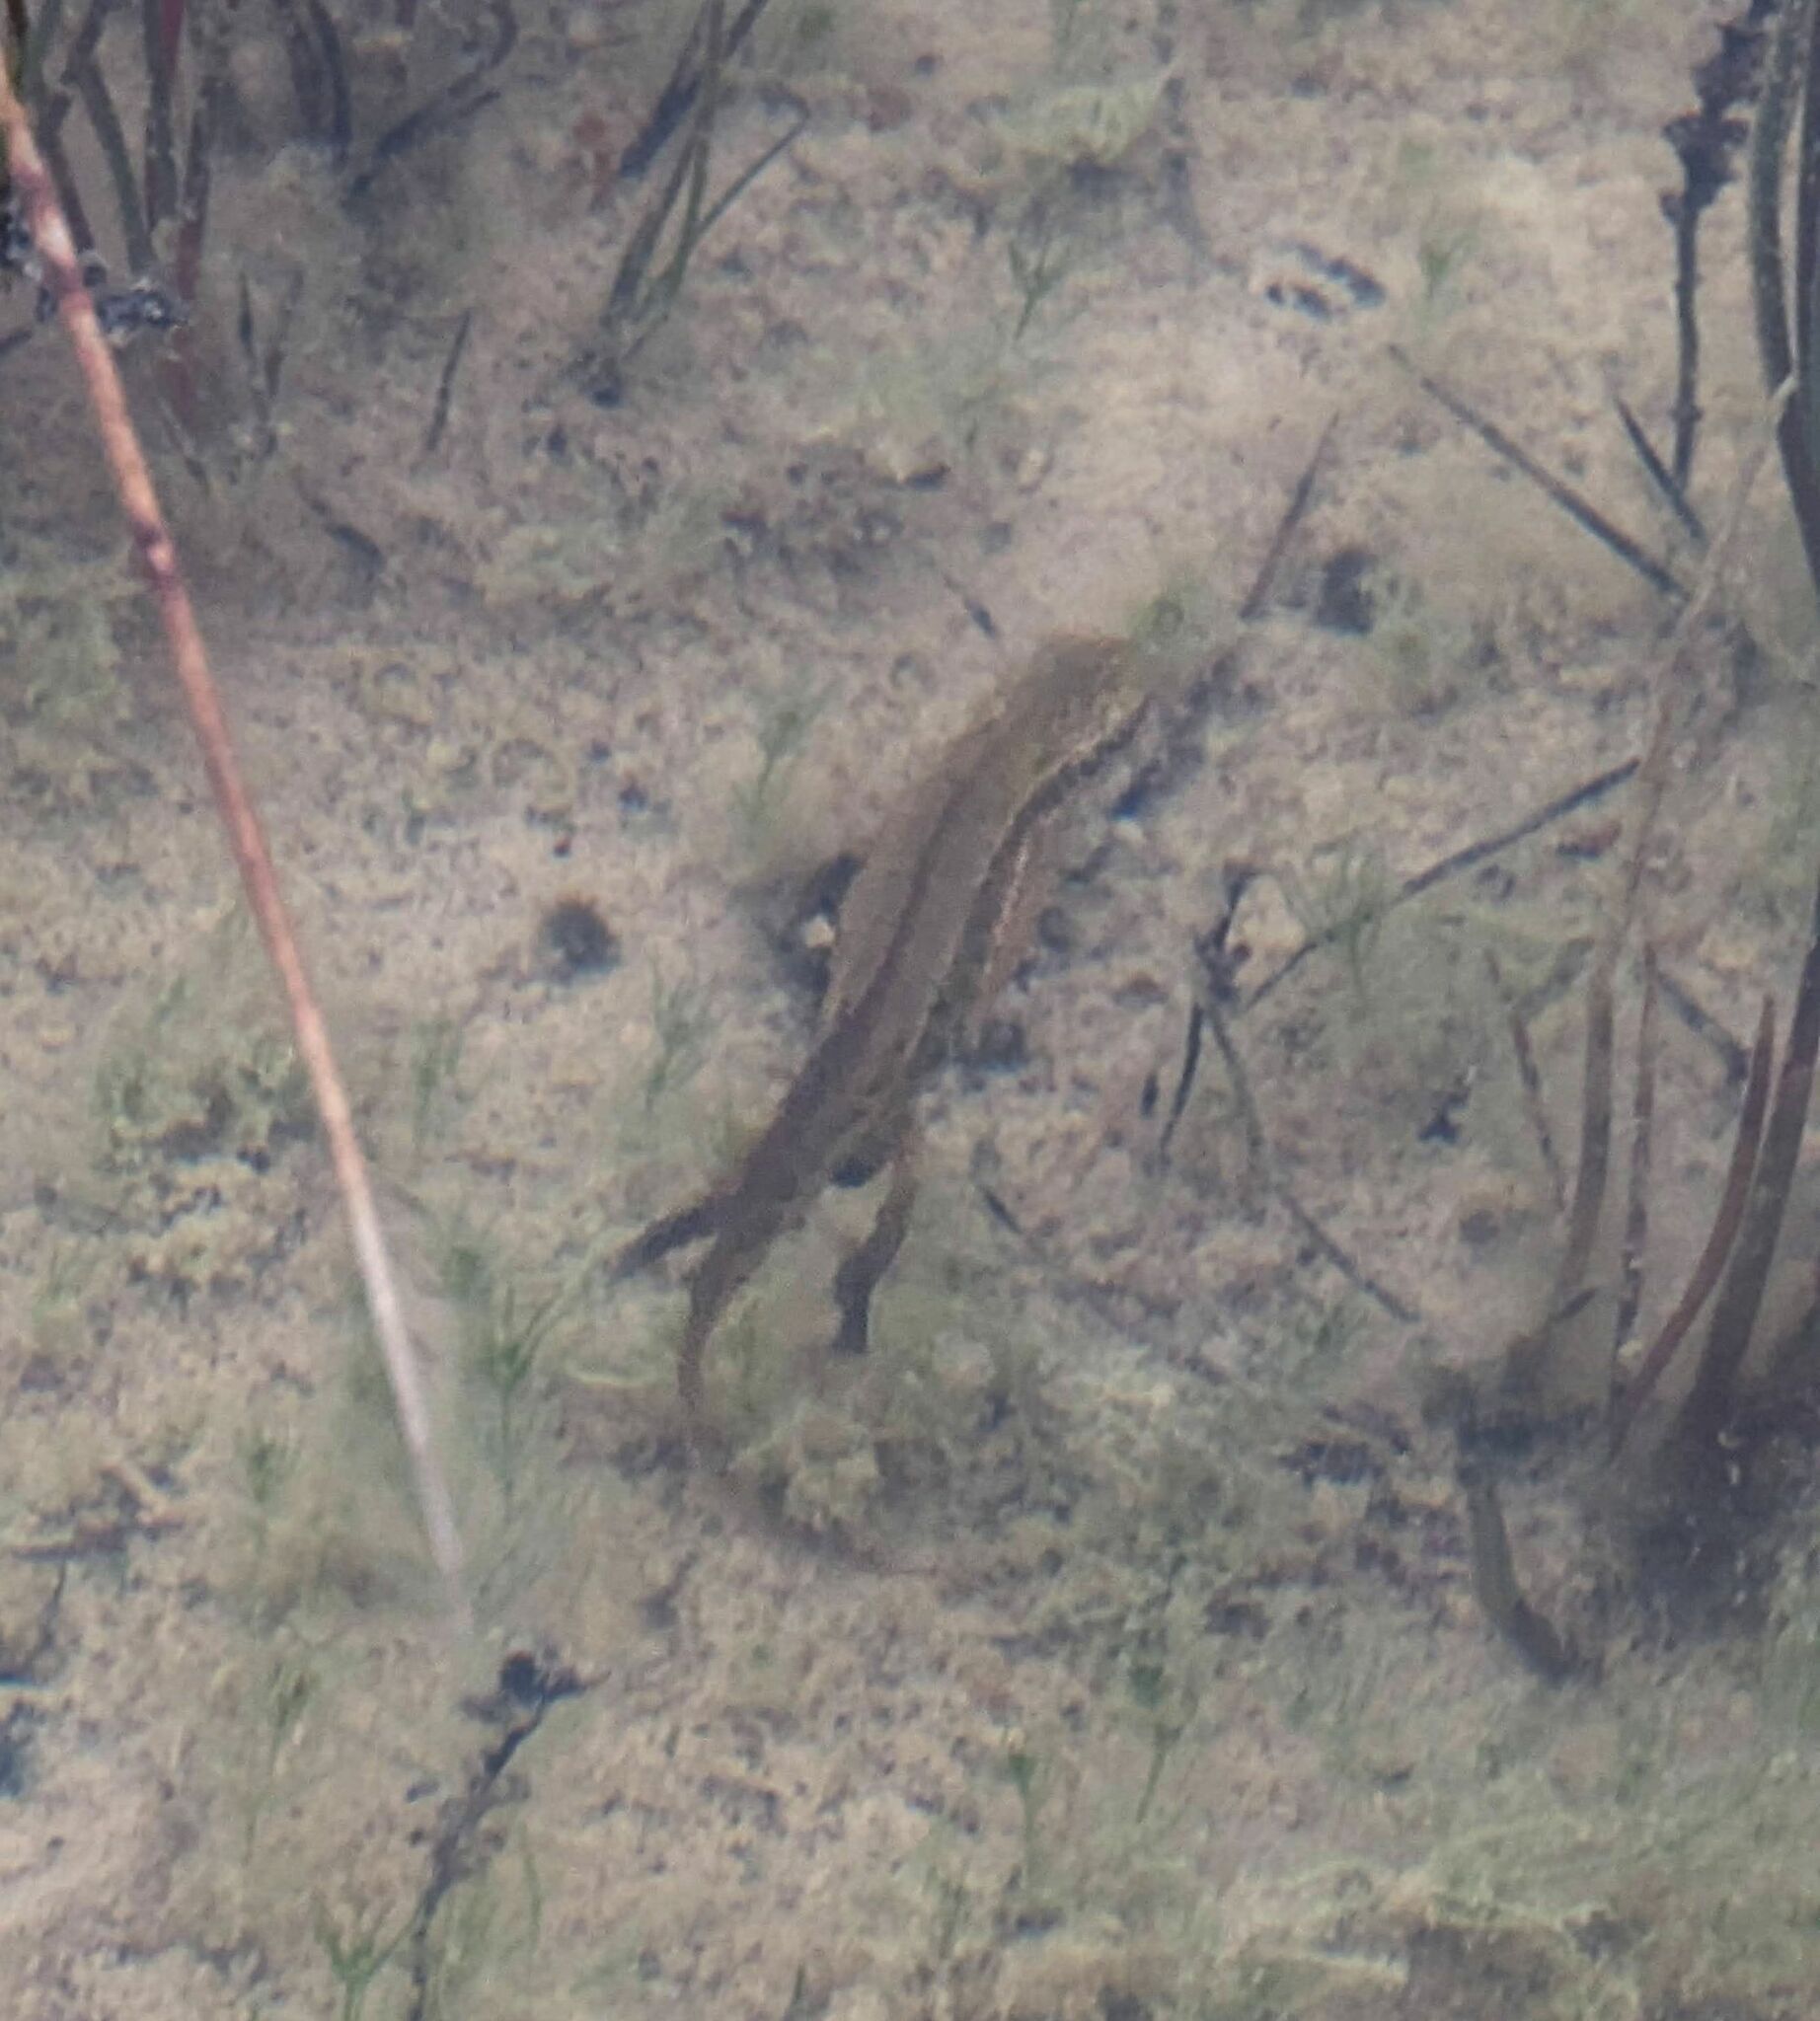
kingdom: Animalia
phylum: Chordata
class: Amphibia
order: Caudata
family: Salamandridae
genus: Lissotriton
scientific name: Lissotriton helveticus
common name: Palmate newt
